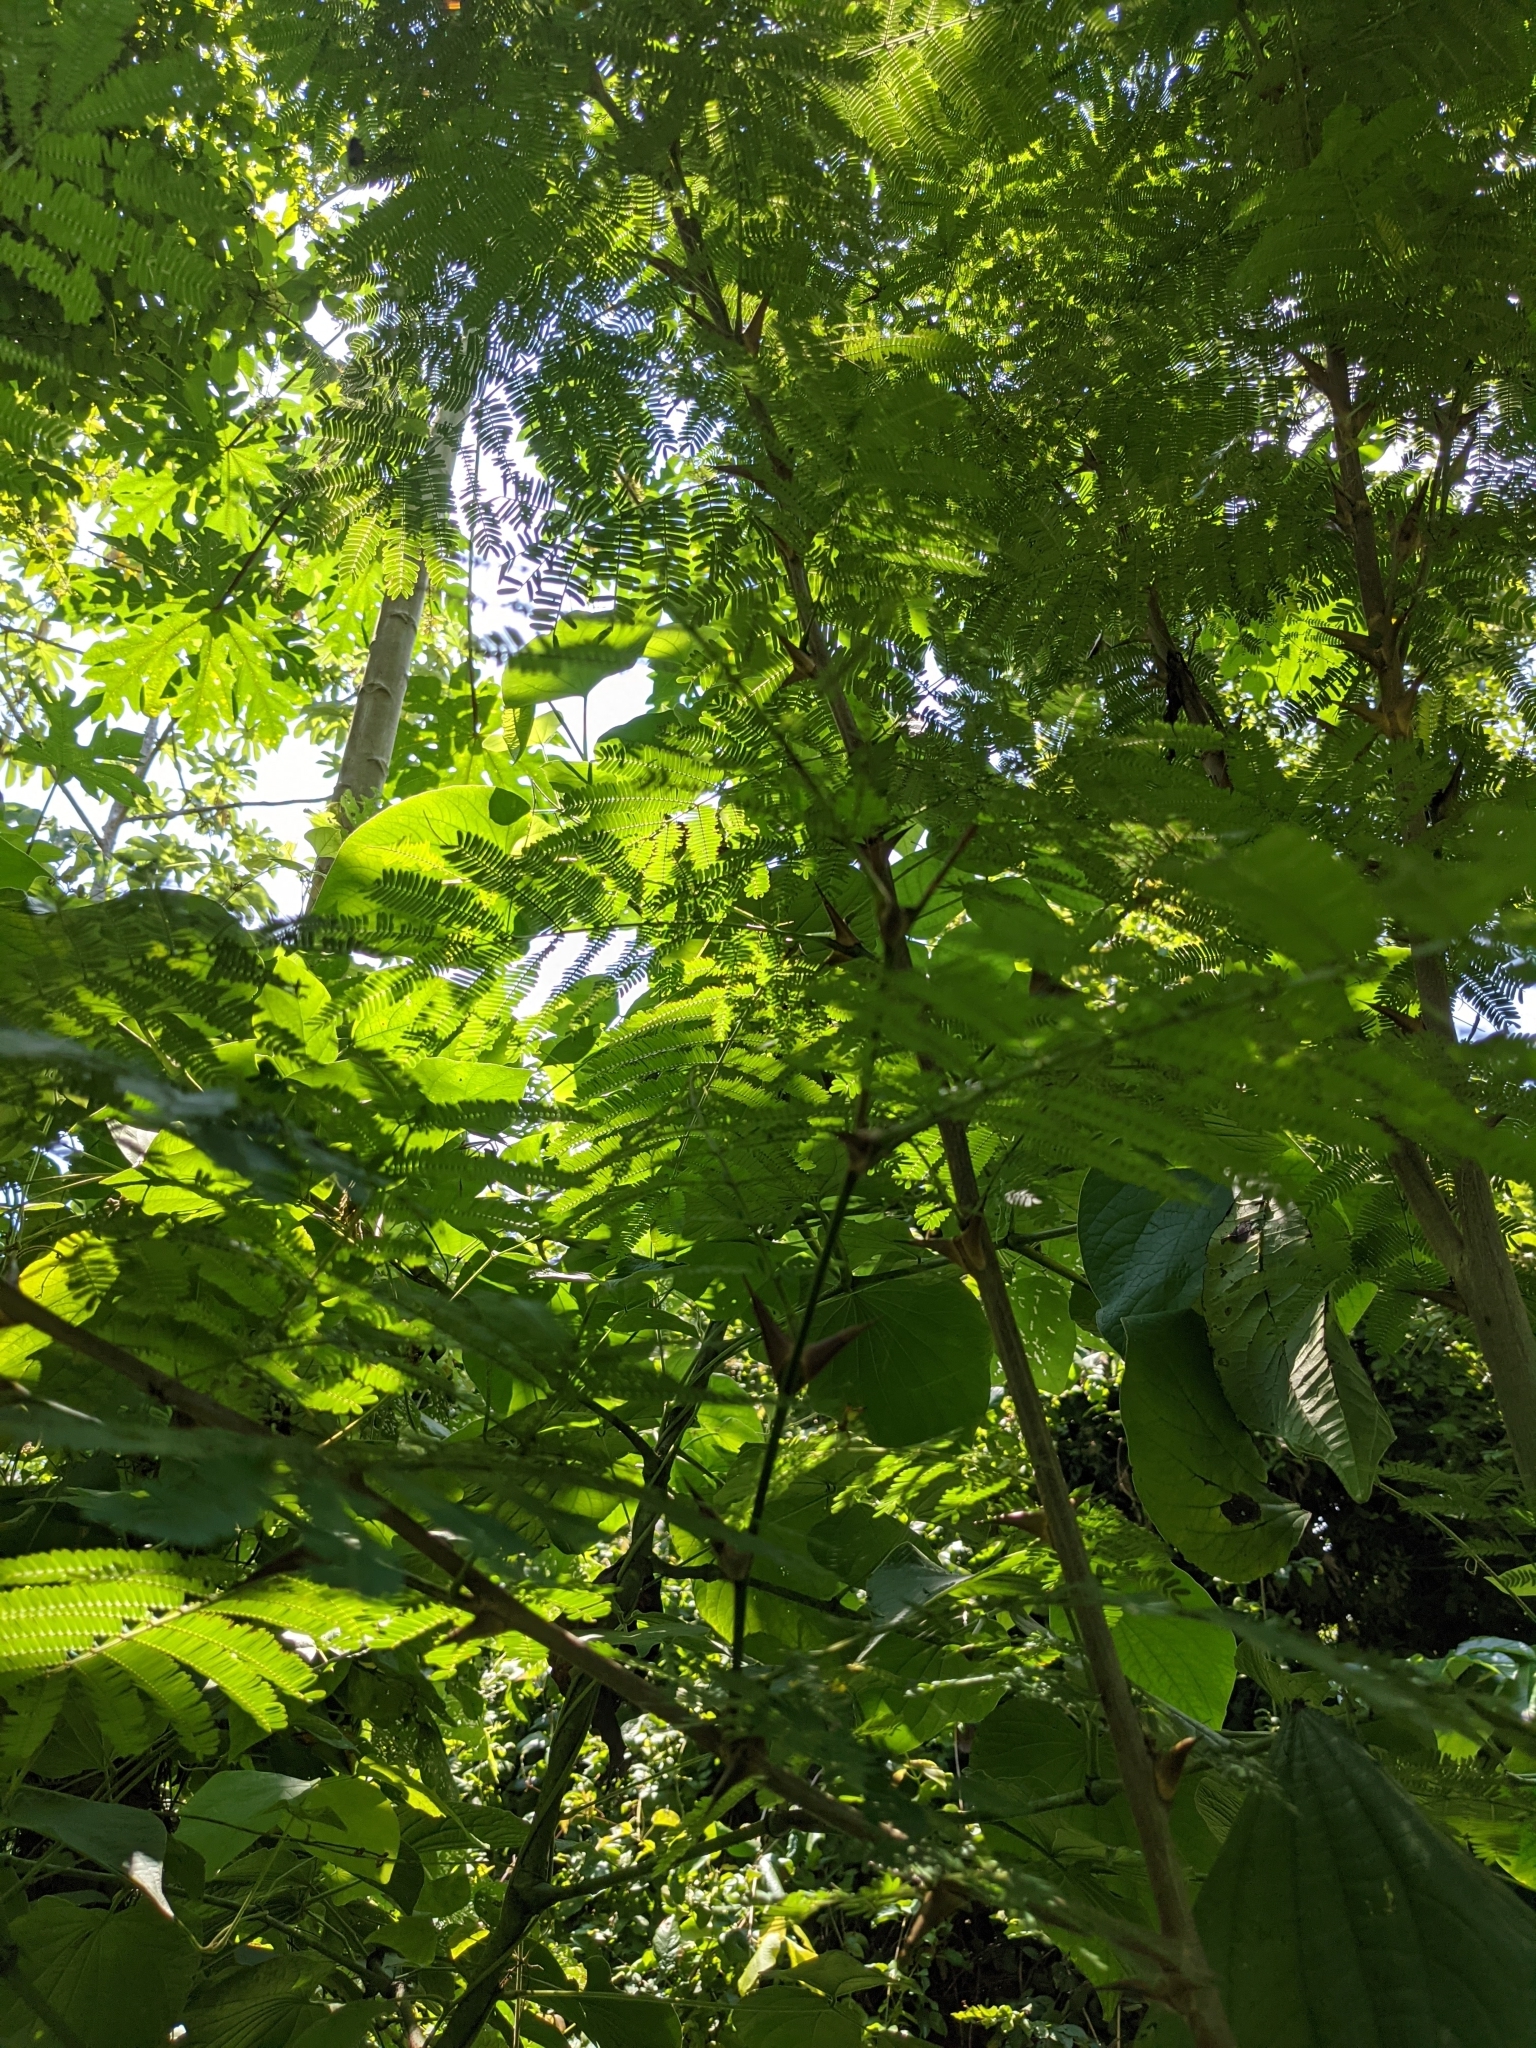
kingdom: Plantae
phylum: Tracheophyta
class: Magnoliopsida
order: Fabales
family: Fabaceae
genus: Vachellia
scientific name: Vachellia collinsii
